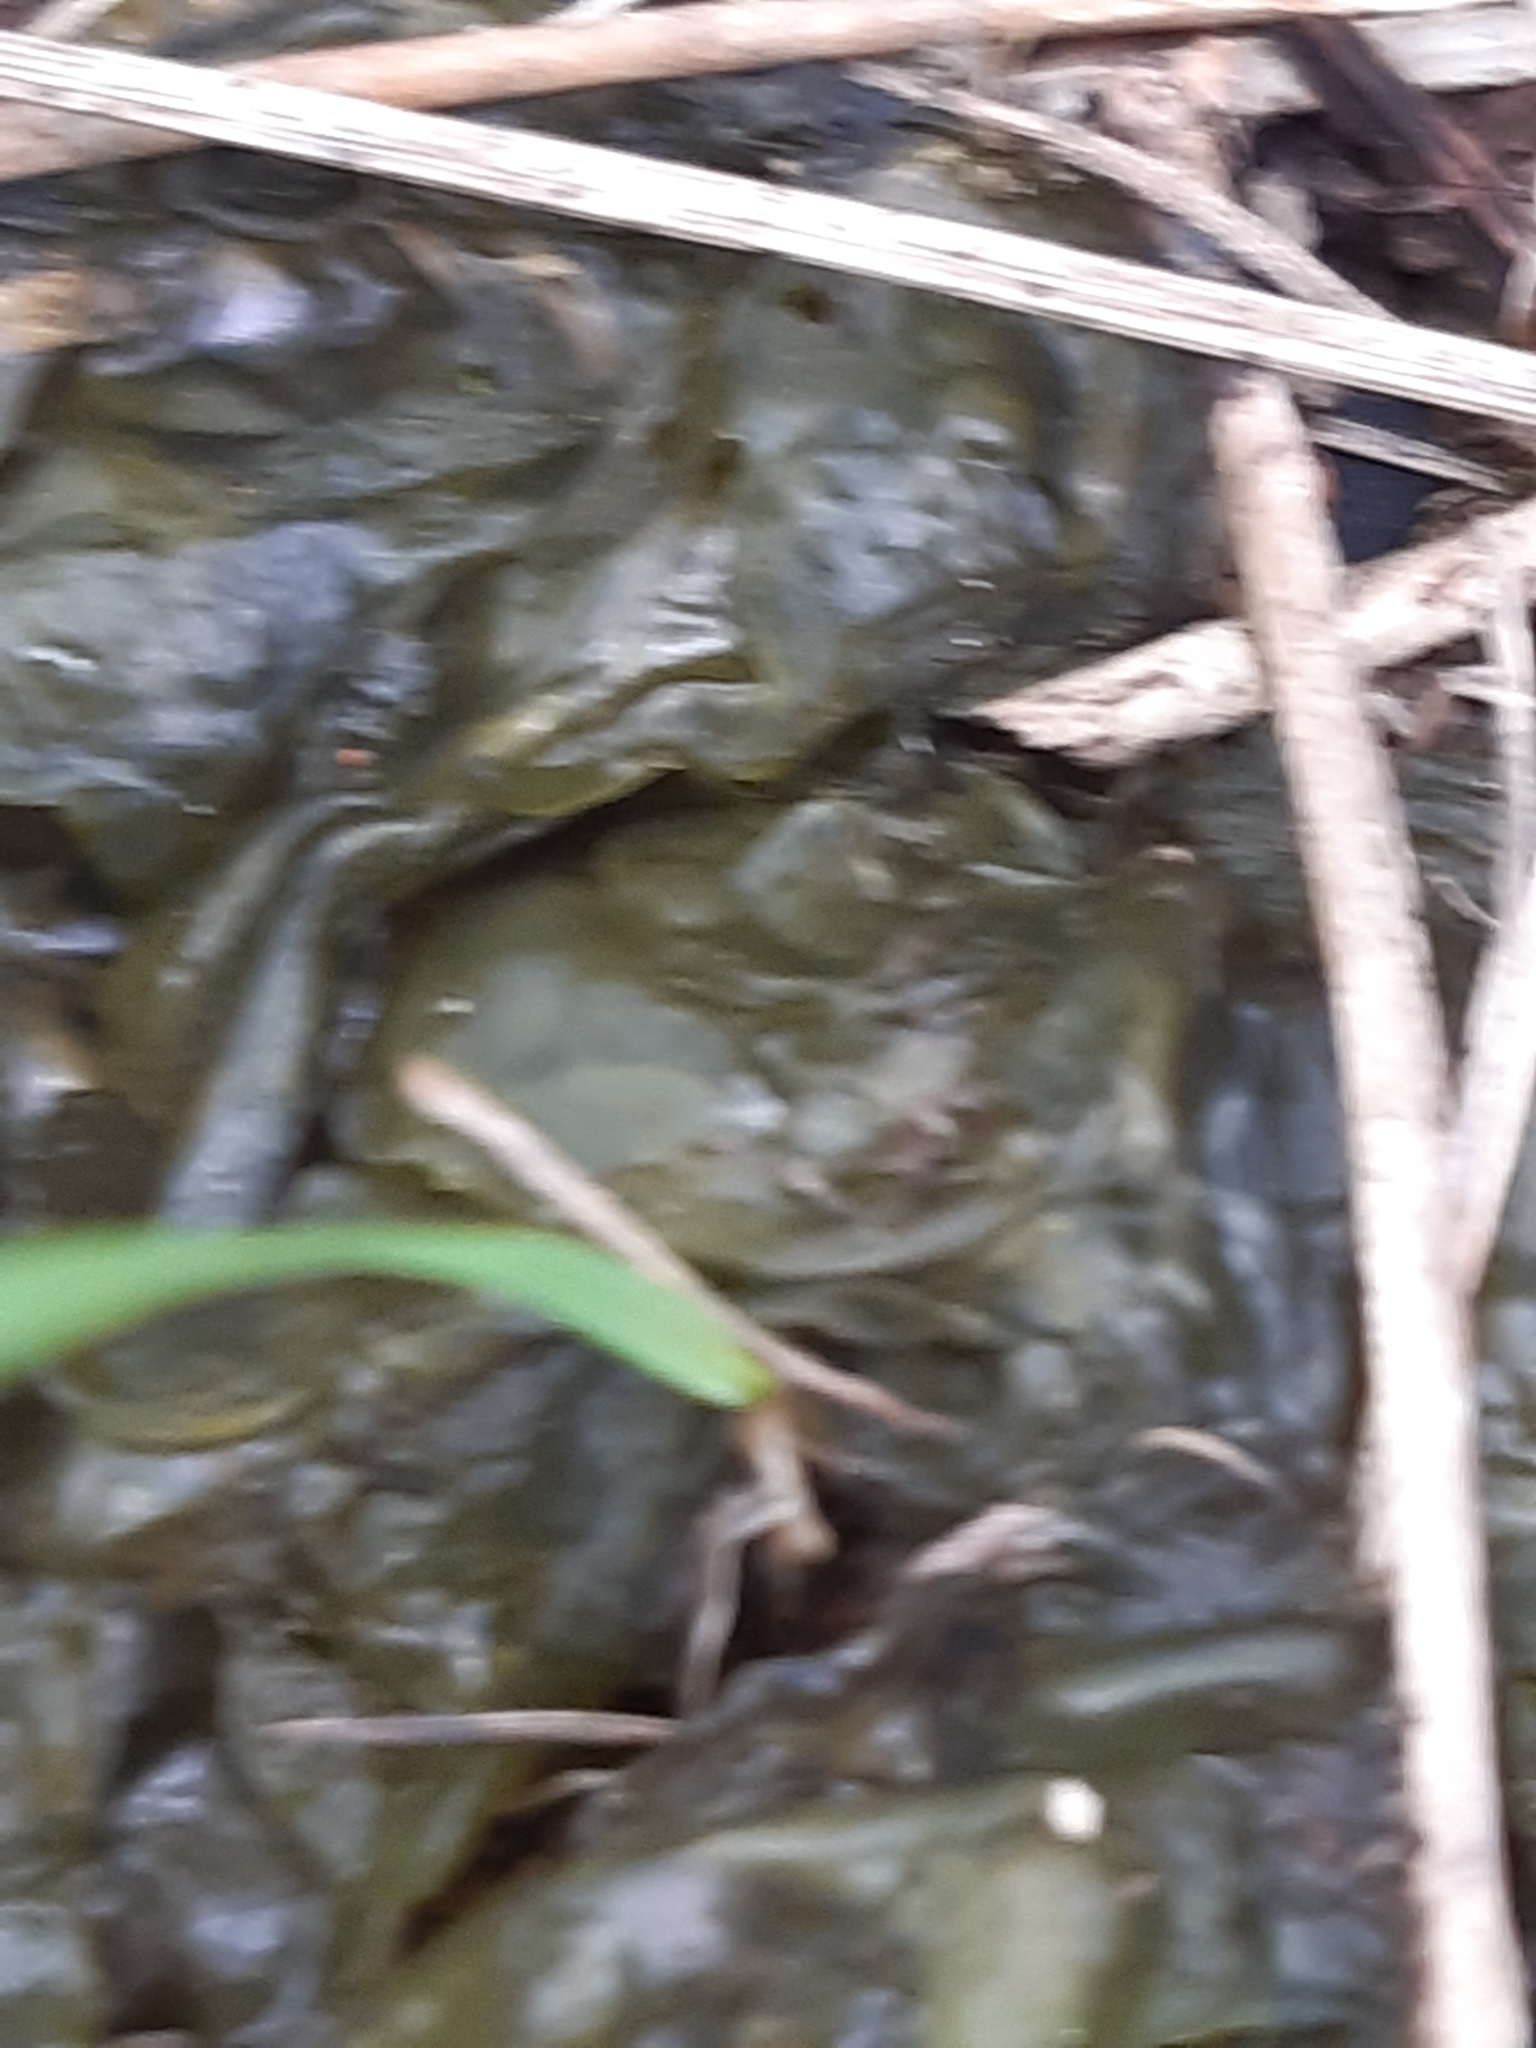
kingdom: Bacteria
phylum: Cyanobacteria
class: Cyanobacteriia
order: Cyanobacteriales
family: Nostocaceae
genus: Nostoc
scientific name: Nostoc commune
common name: Star jelly
